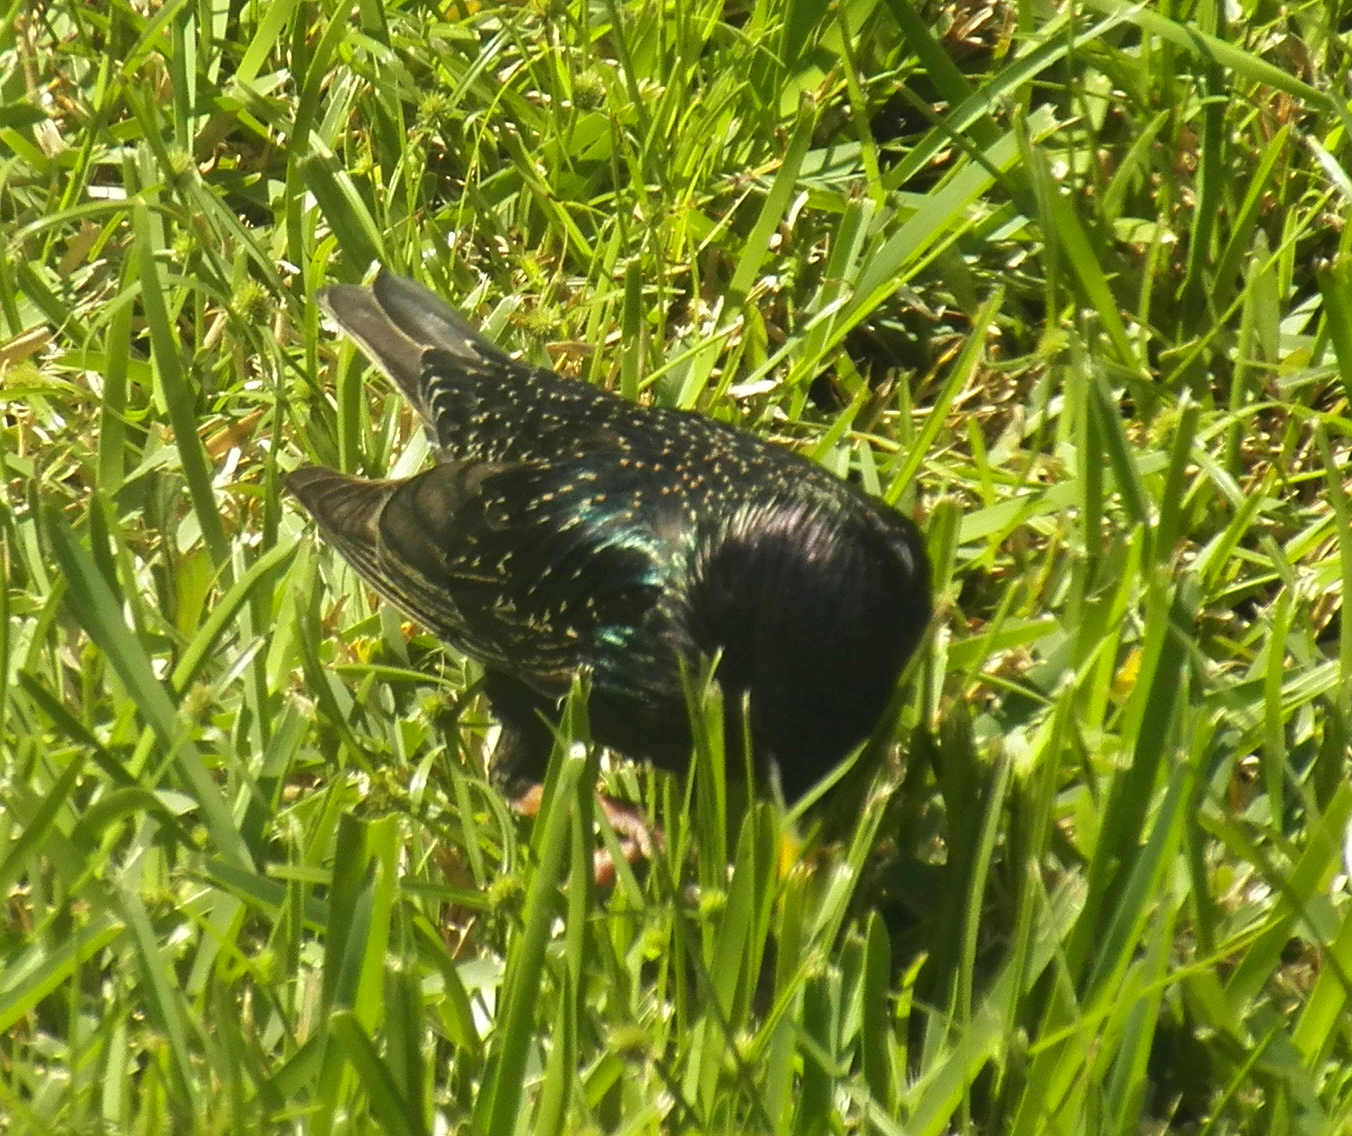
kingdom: Animalia
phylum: Chordata
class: Aves
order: Passeriformes
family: Sturnidae
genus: Sturnus
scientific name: Sturnus vulgaris
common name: Common starling
